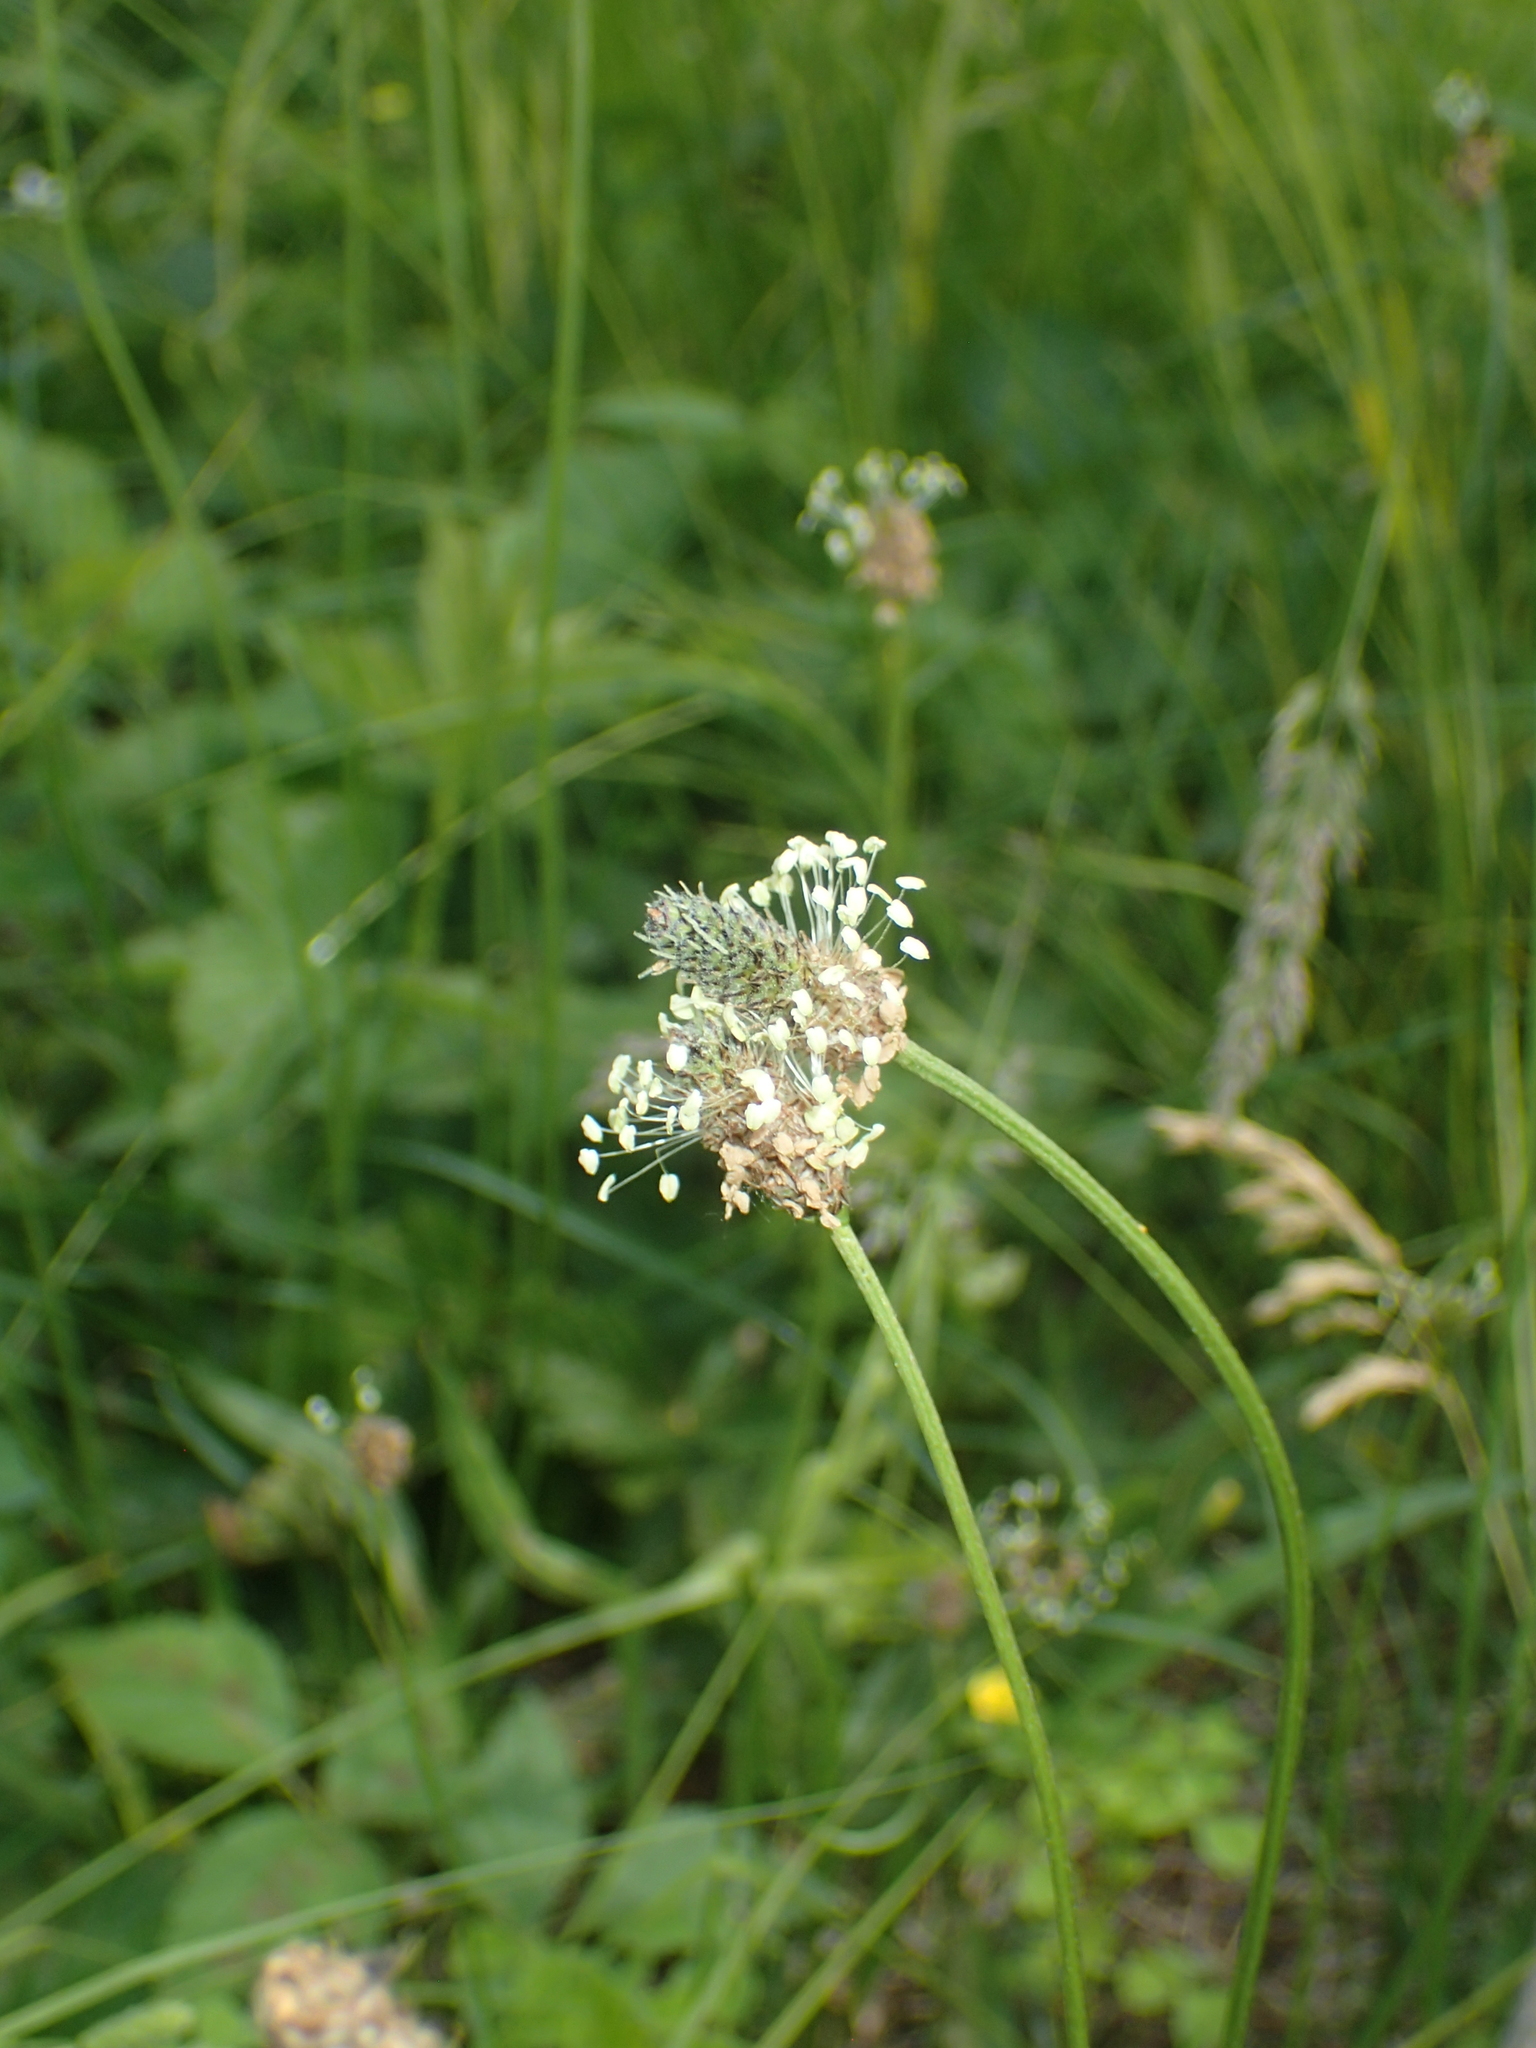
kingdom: Plantae
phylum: Tracheophyta
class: Magnoliopsida
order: Lamiales
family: Plantaginaceae
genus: Plantago
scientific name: Plantago lanceolata
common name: Ribwort plantain
